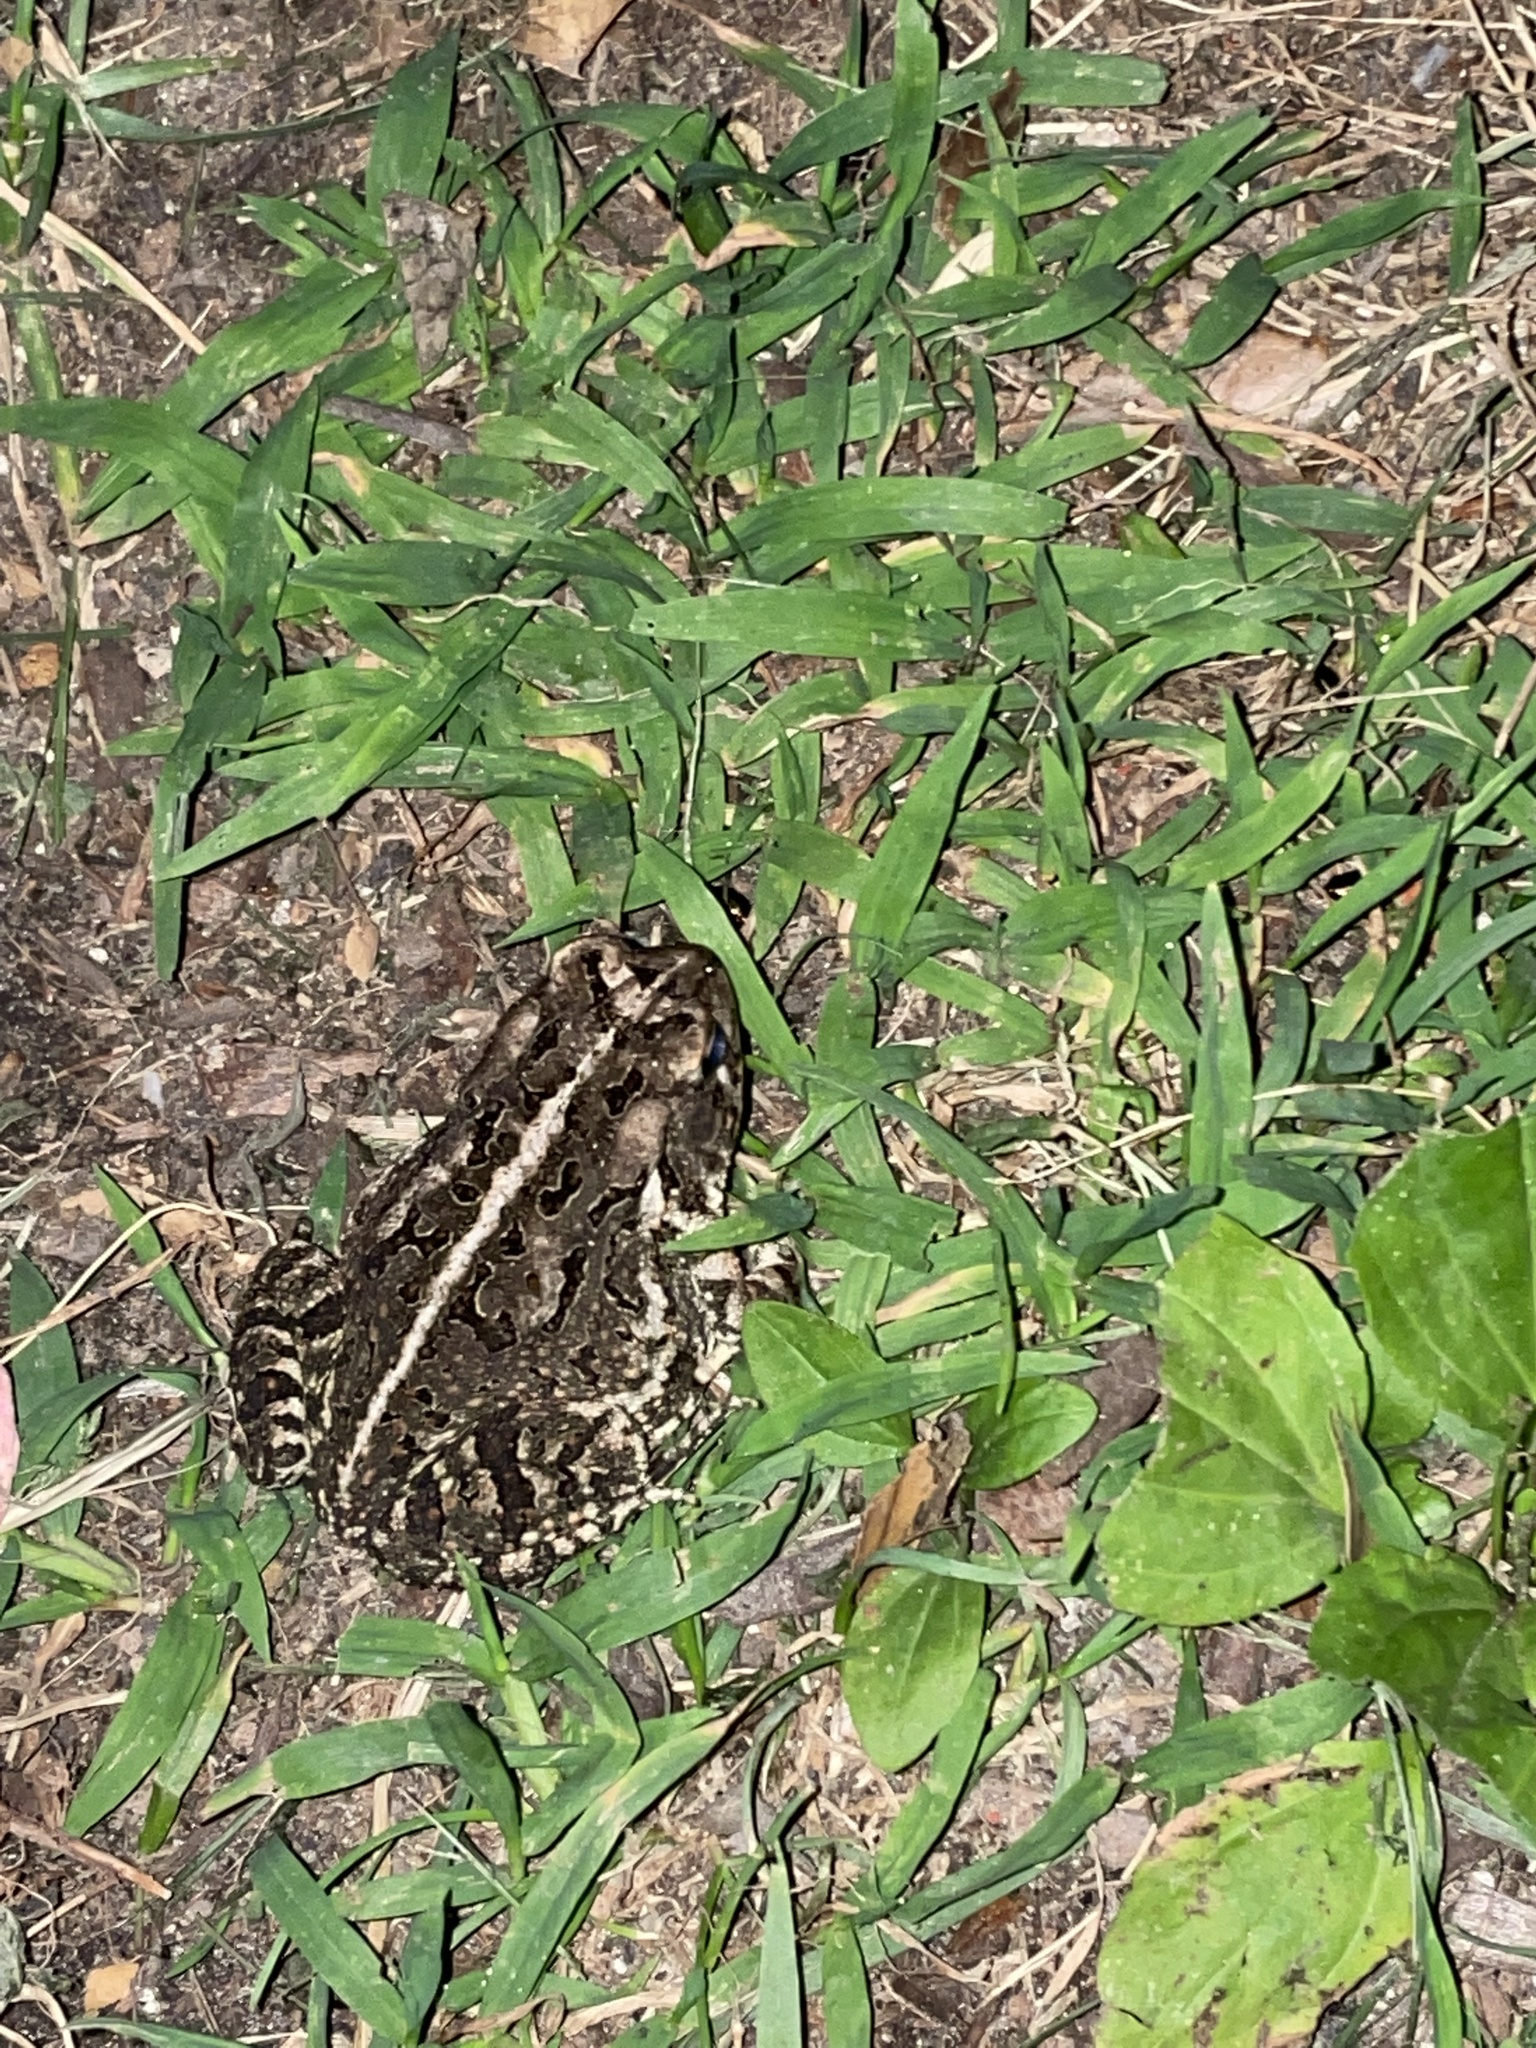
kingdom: Animalia
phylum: Chordata
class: Amphibia
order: Anura
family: Bufonidae
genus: Anaxyrus
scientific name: Anaxyrus fowleri
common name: Fowler's toad
